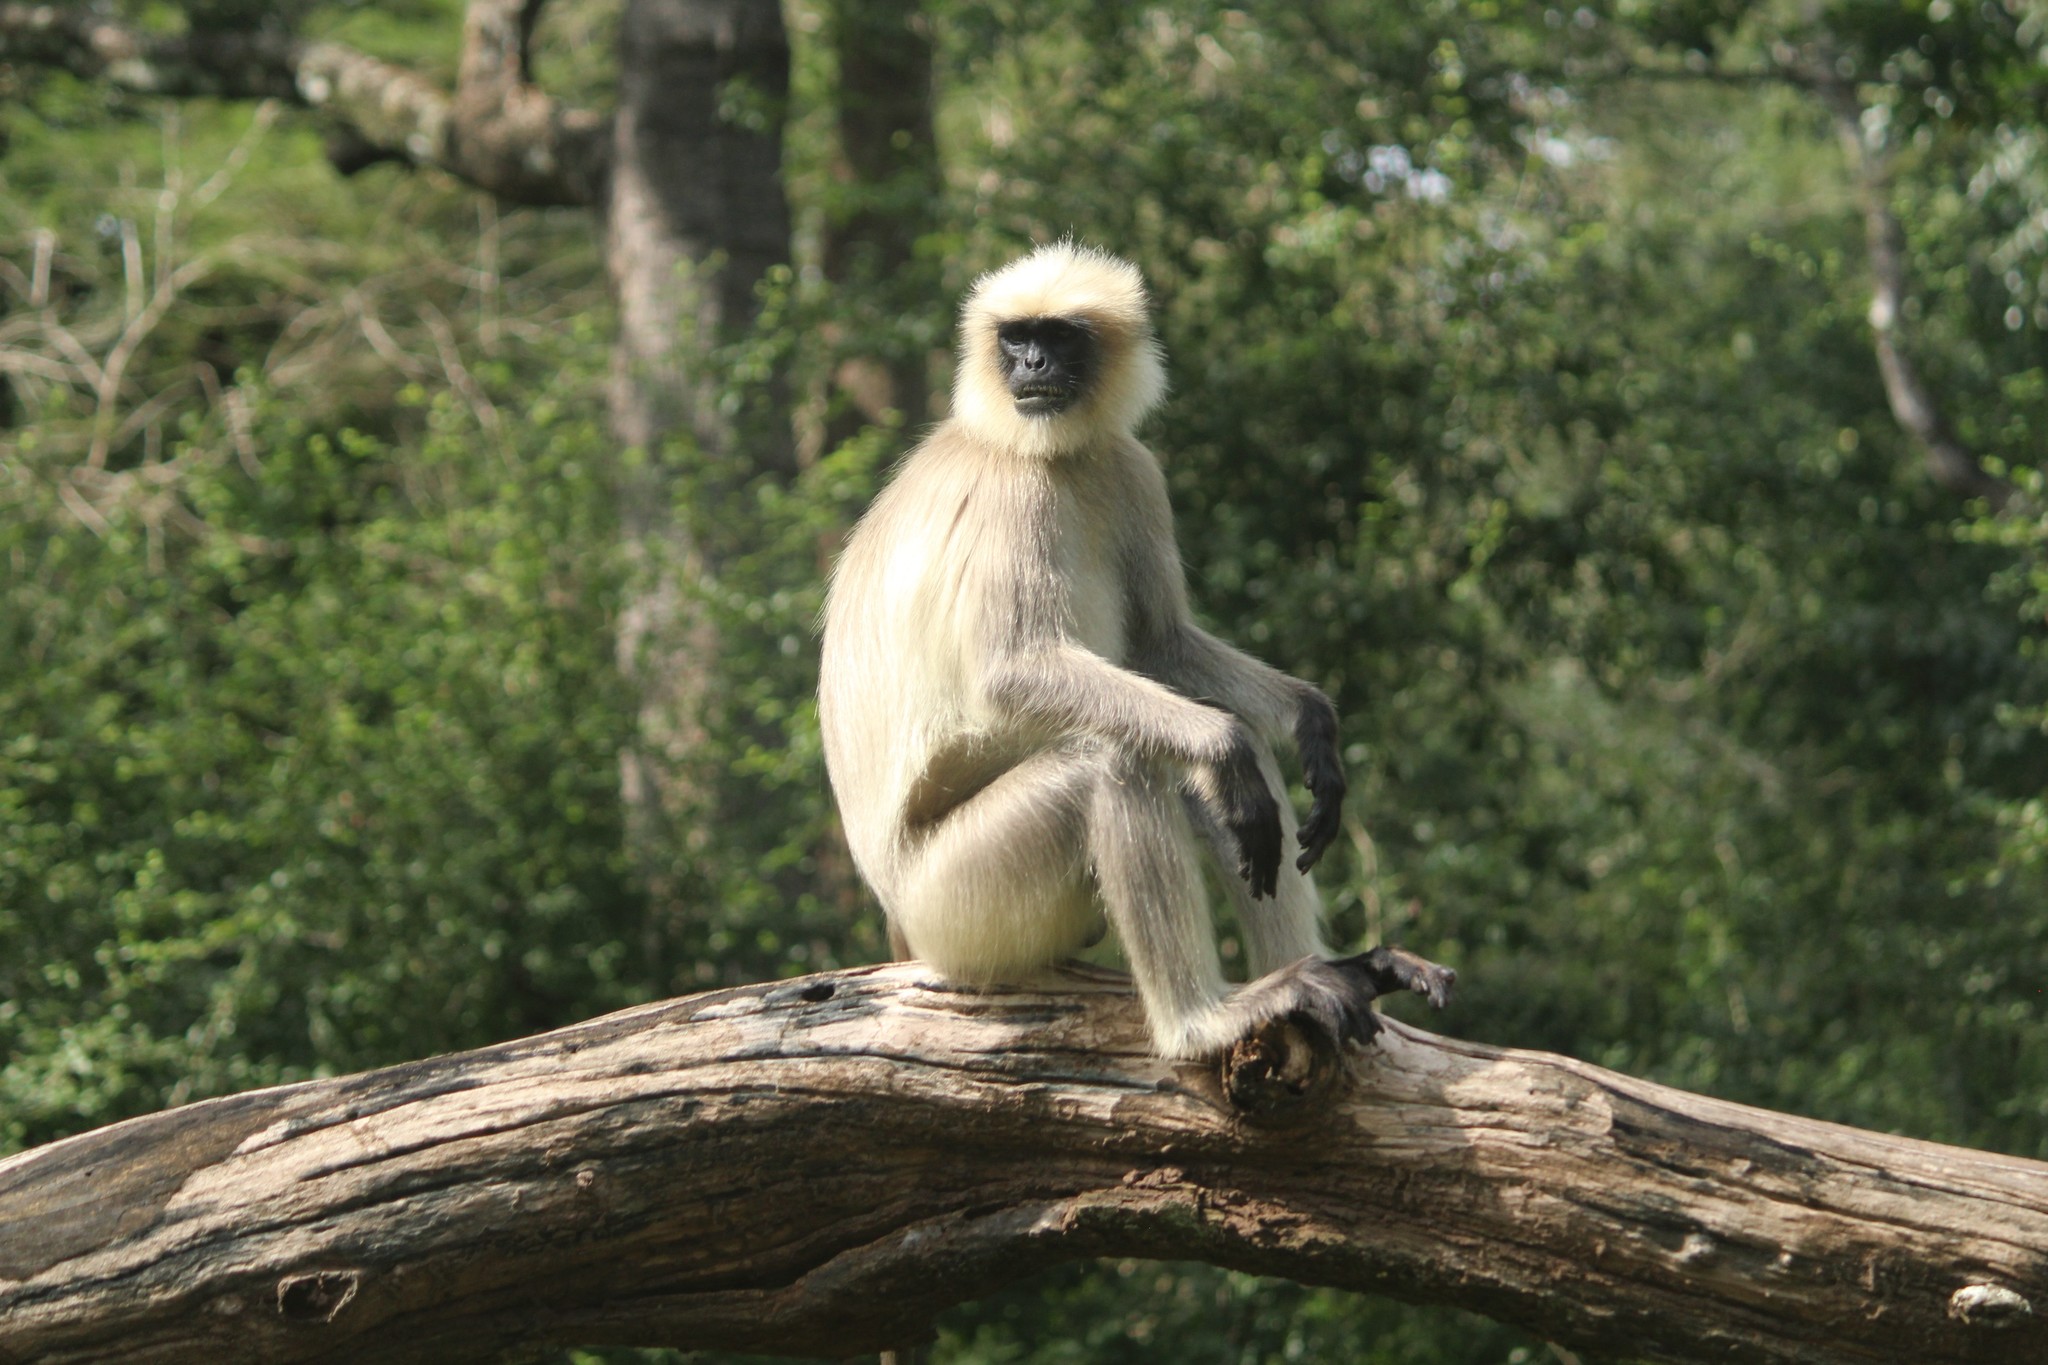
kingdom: Animalia
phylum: Chordata
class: Mammalia
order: Primates
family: Cercopithecidae
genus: Semnopithecus
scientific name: Semnopithecus hypoleucos
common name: Black-footed gray langur
